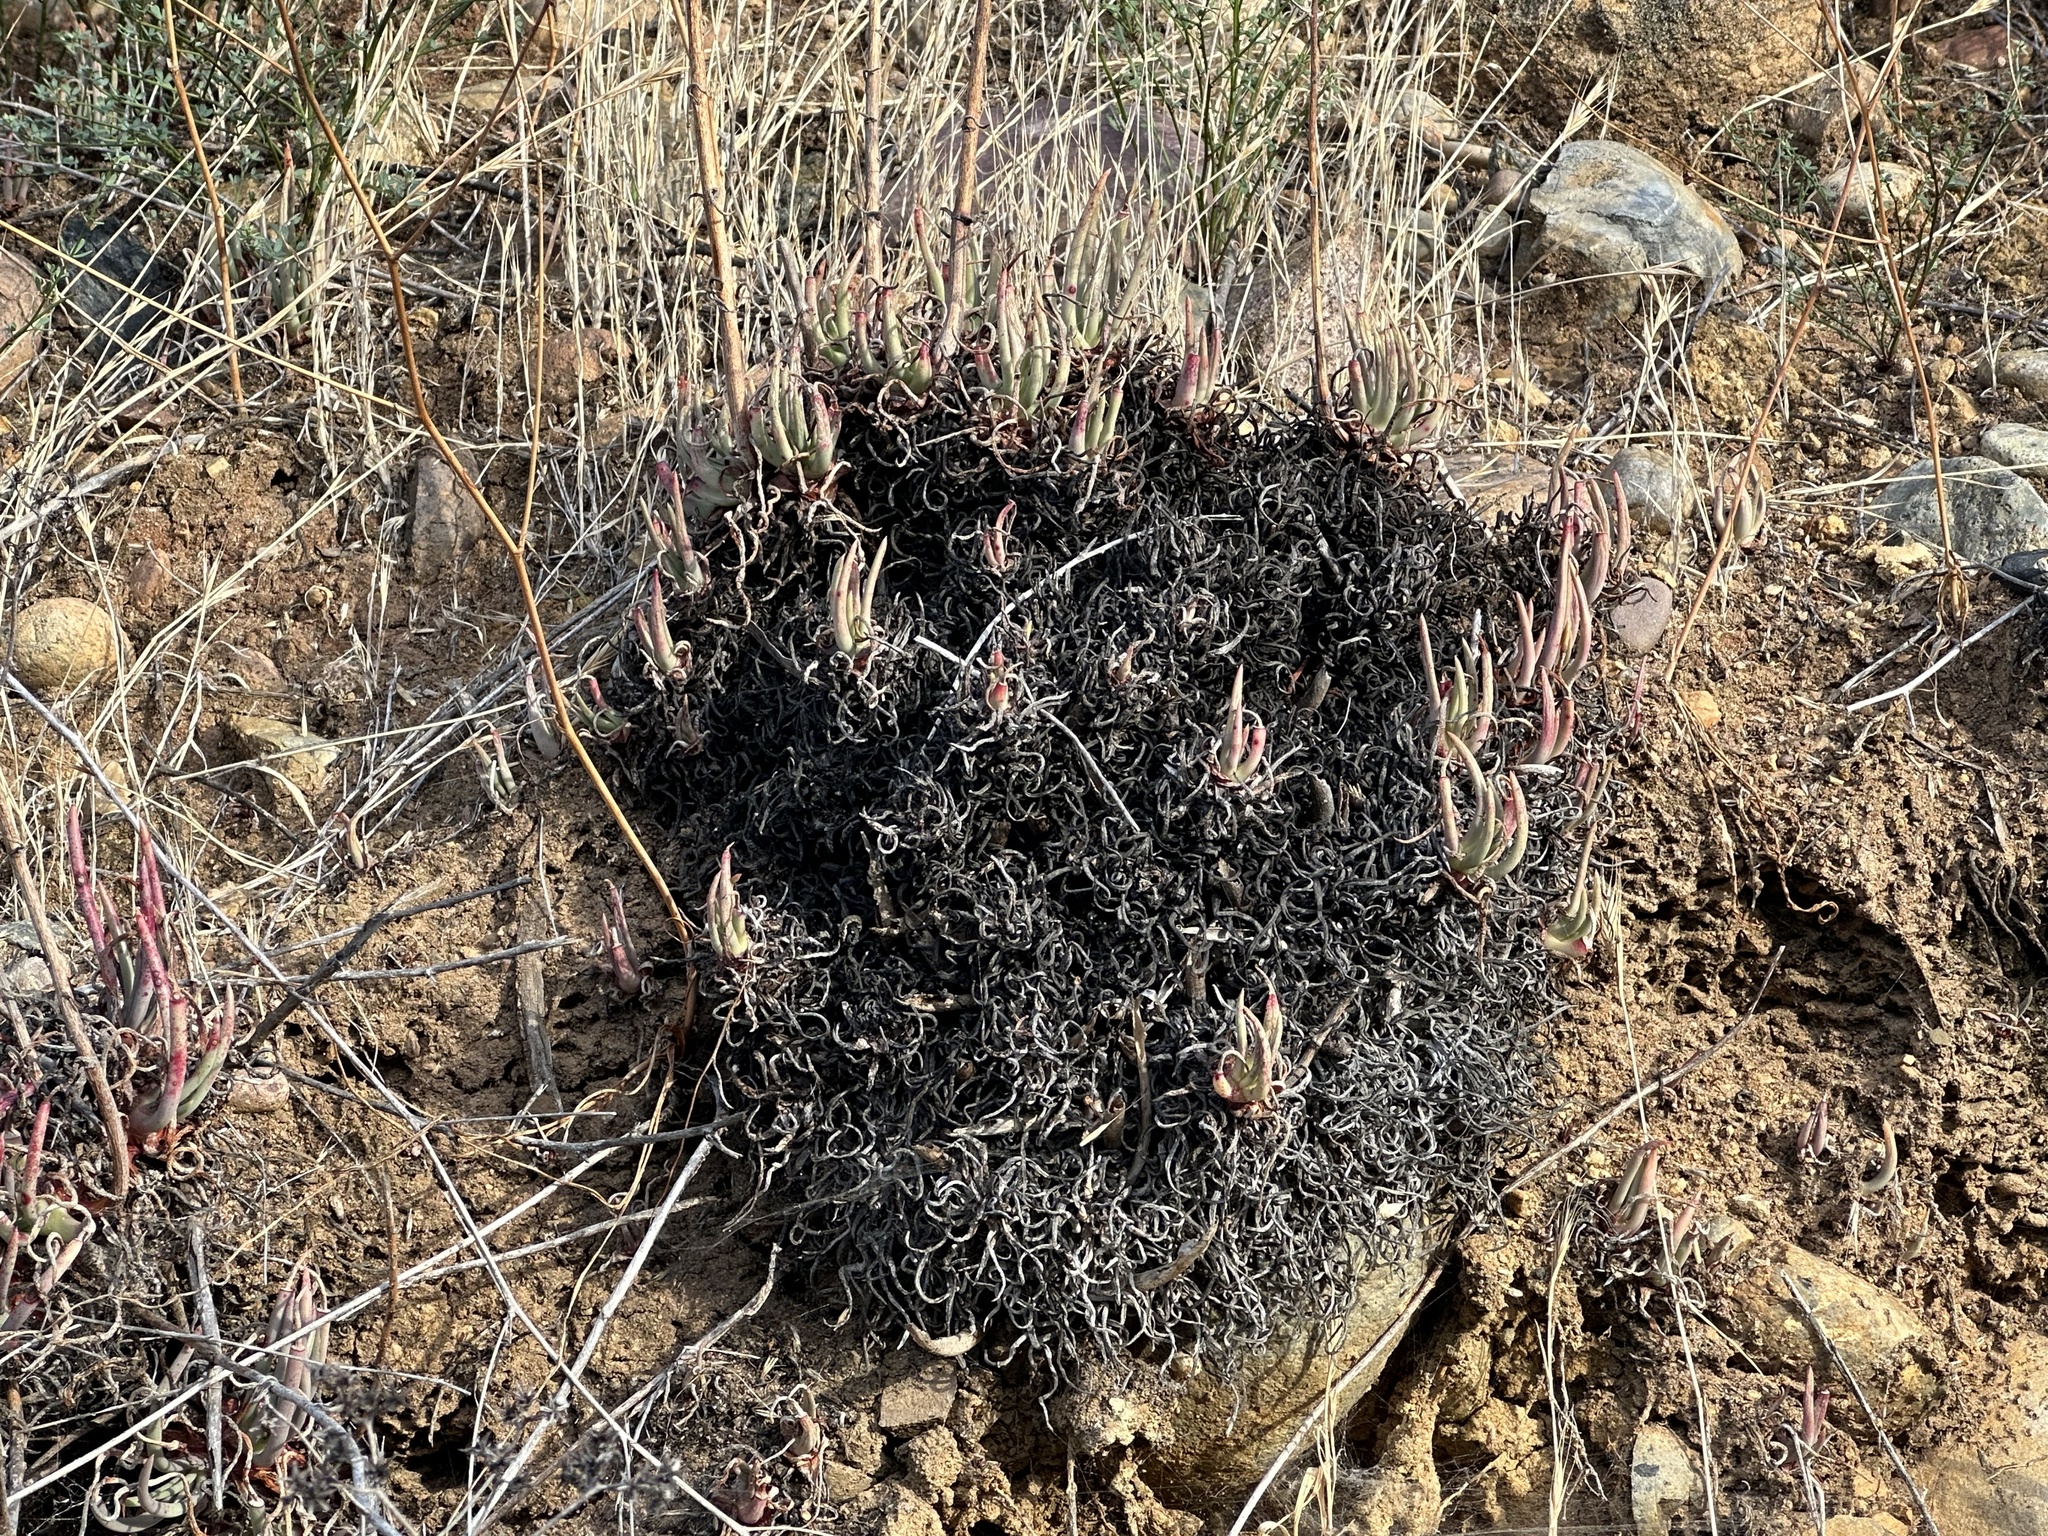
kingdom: Plantae
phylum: Tracheophyta
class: Magnoliopsida
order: Saxifragales
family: Crassulaceae
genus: Dudleya
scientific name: Dudleya edulis
